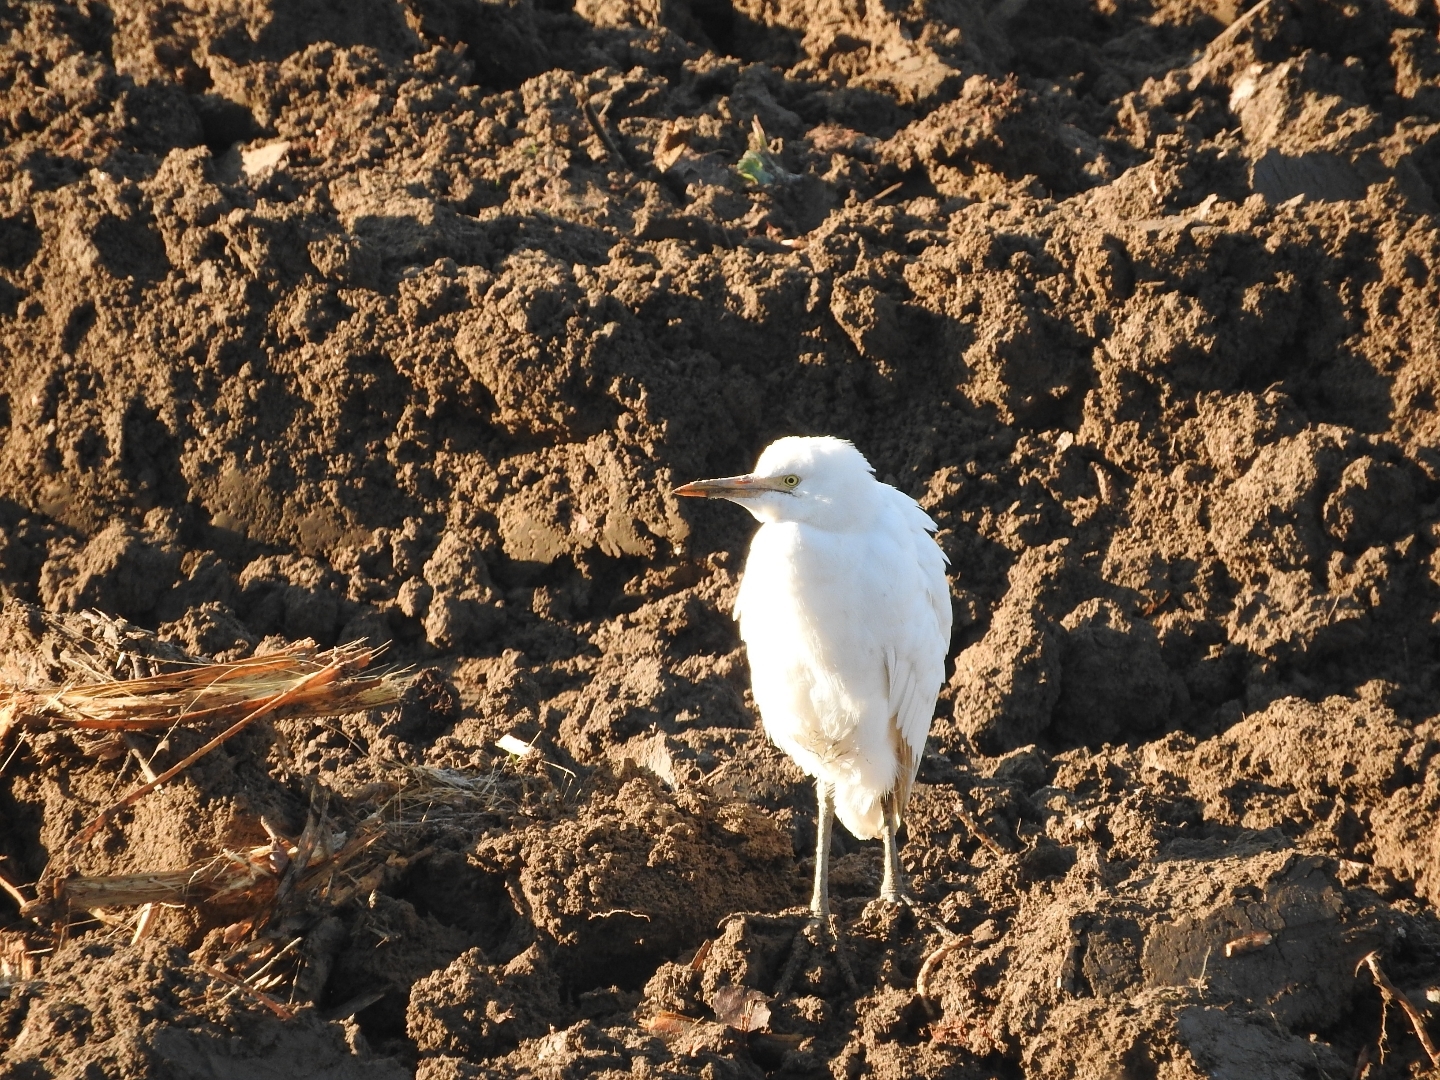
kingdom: Animalia
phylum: Chordata
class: Aves
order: Pelecaniformes
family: Ardeidae
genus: Bubulcus
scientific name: Bubulcus ibis
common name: Cattle egret
